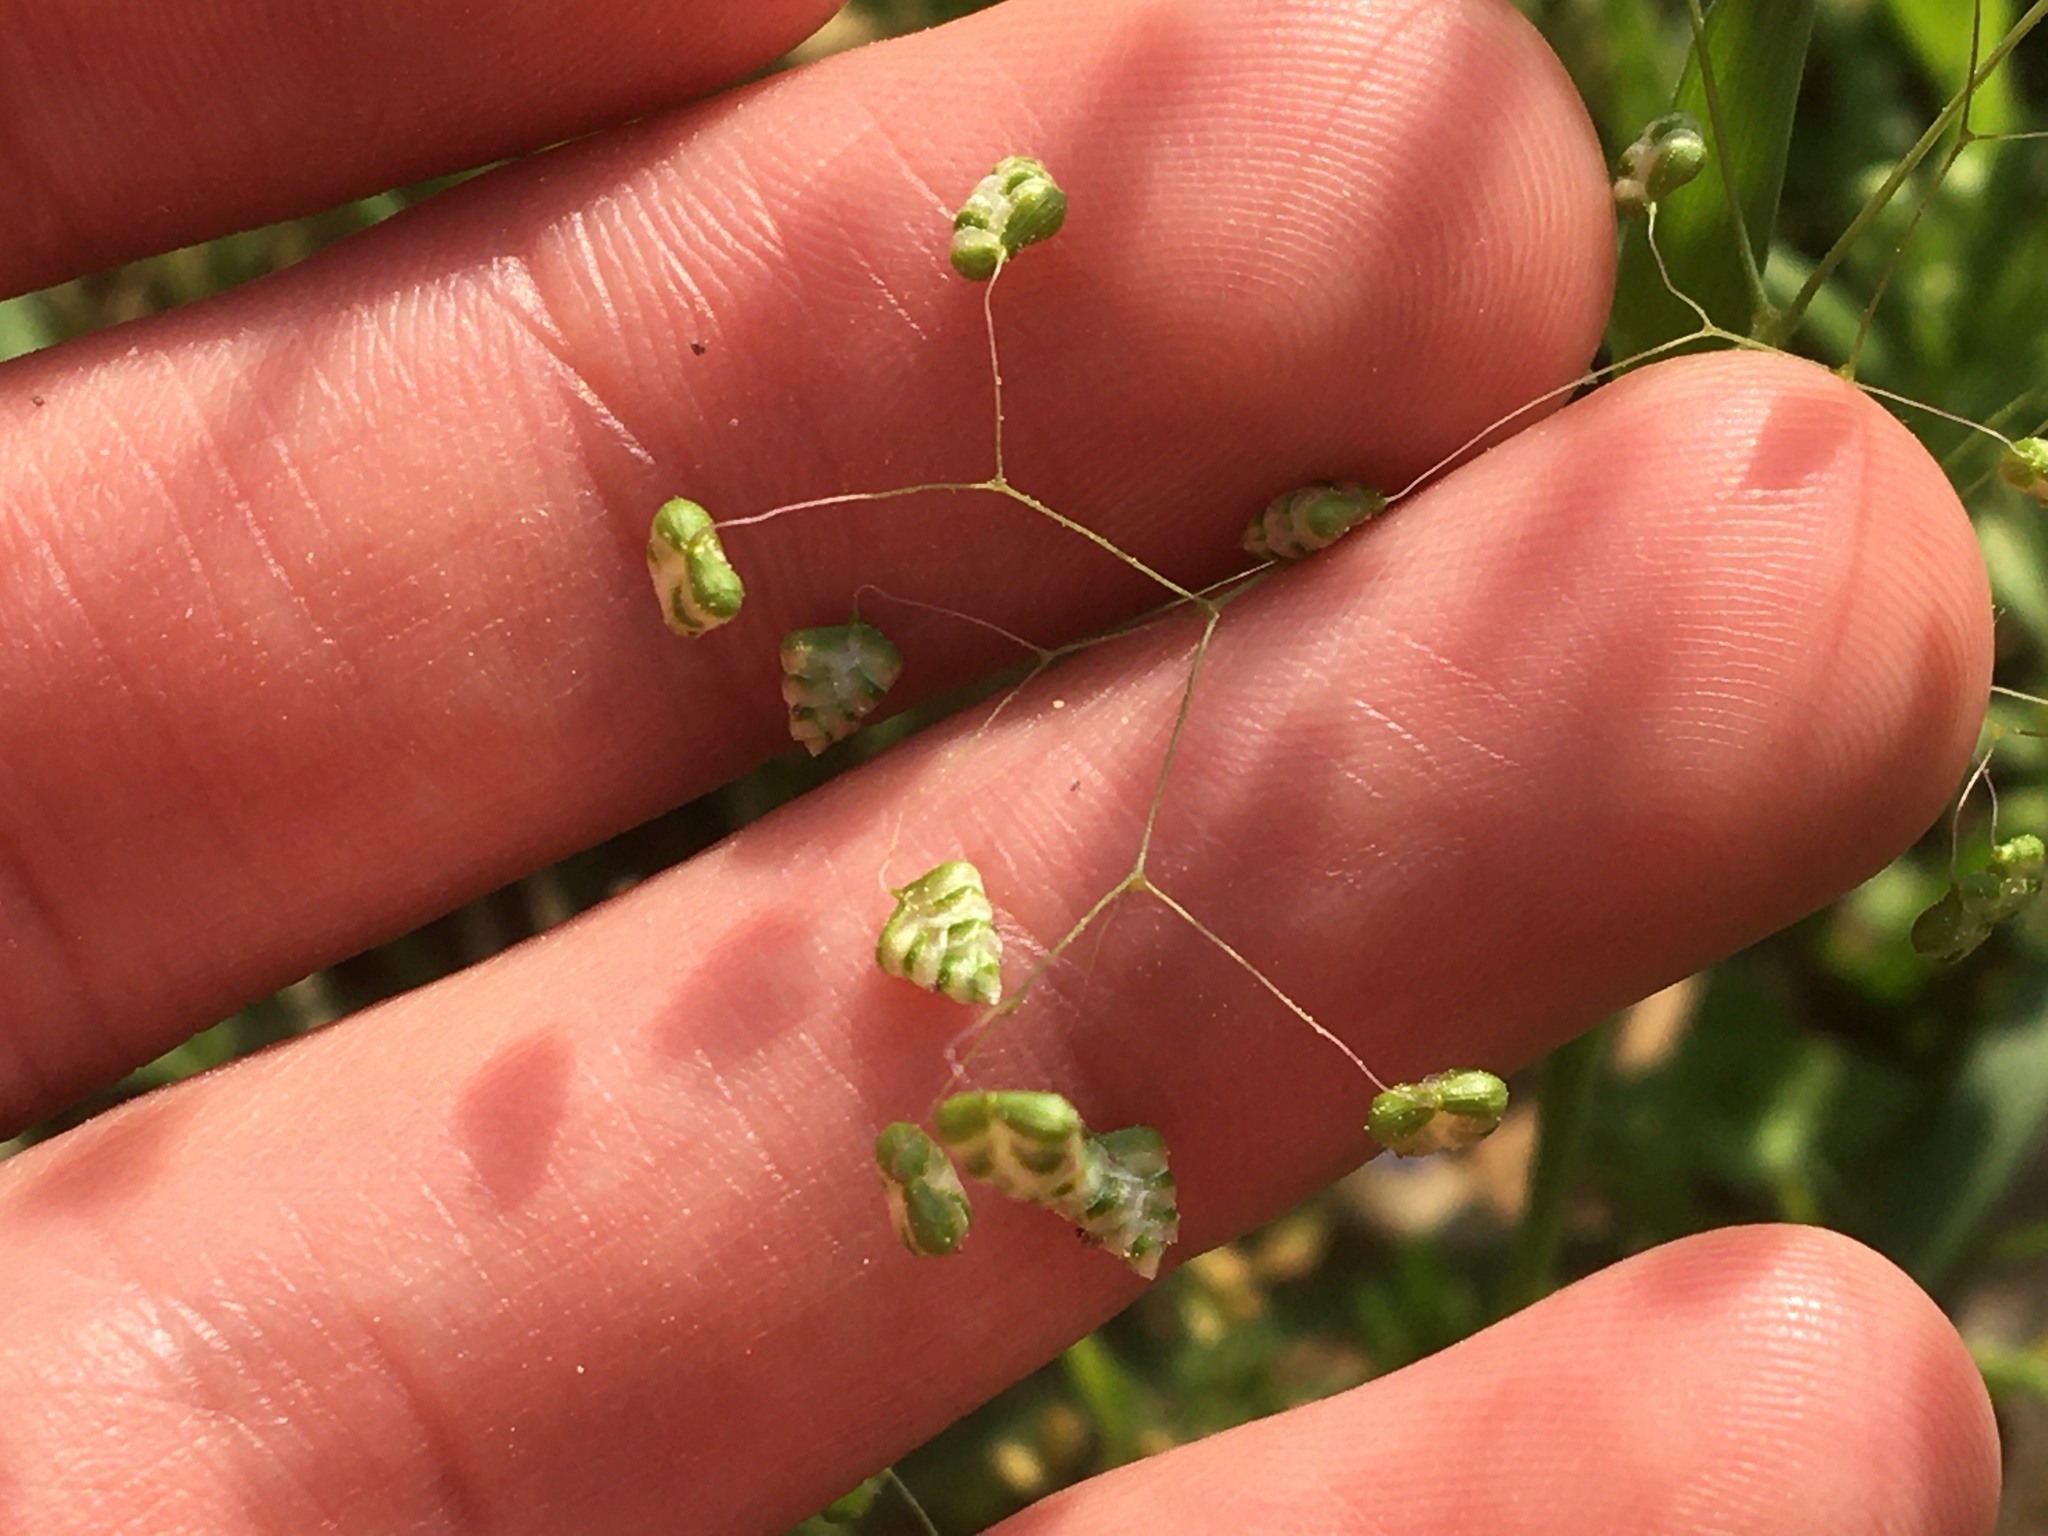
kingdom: Plantae
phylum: Tracheophyta
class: Liliopsida
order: Poales
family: Poaceae
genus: Briza
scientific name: Briza minor
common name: Lesser quaking-grass
